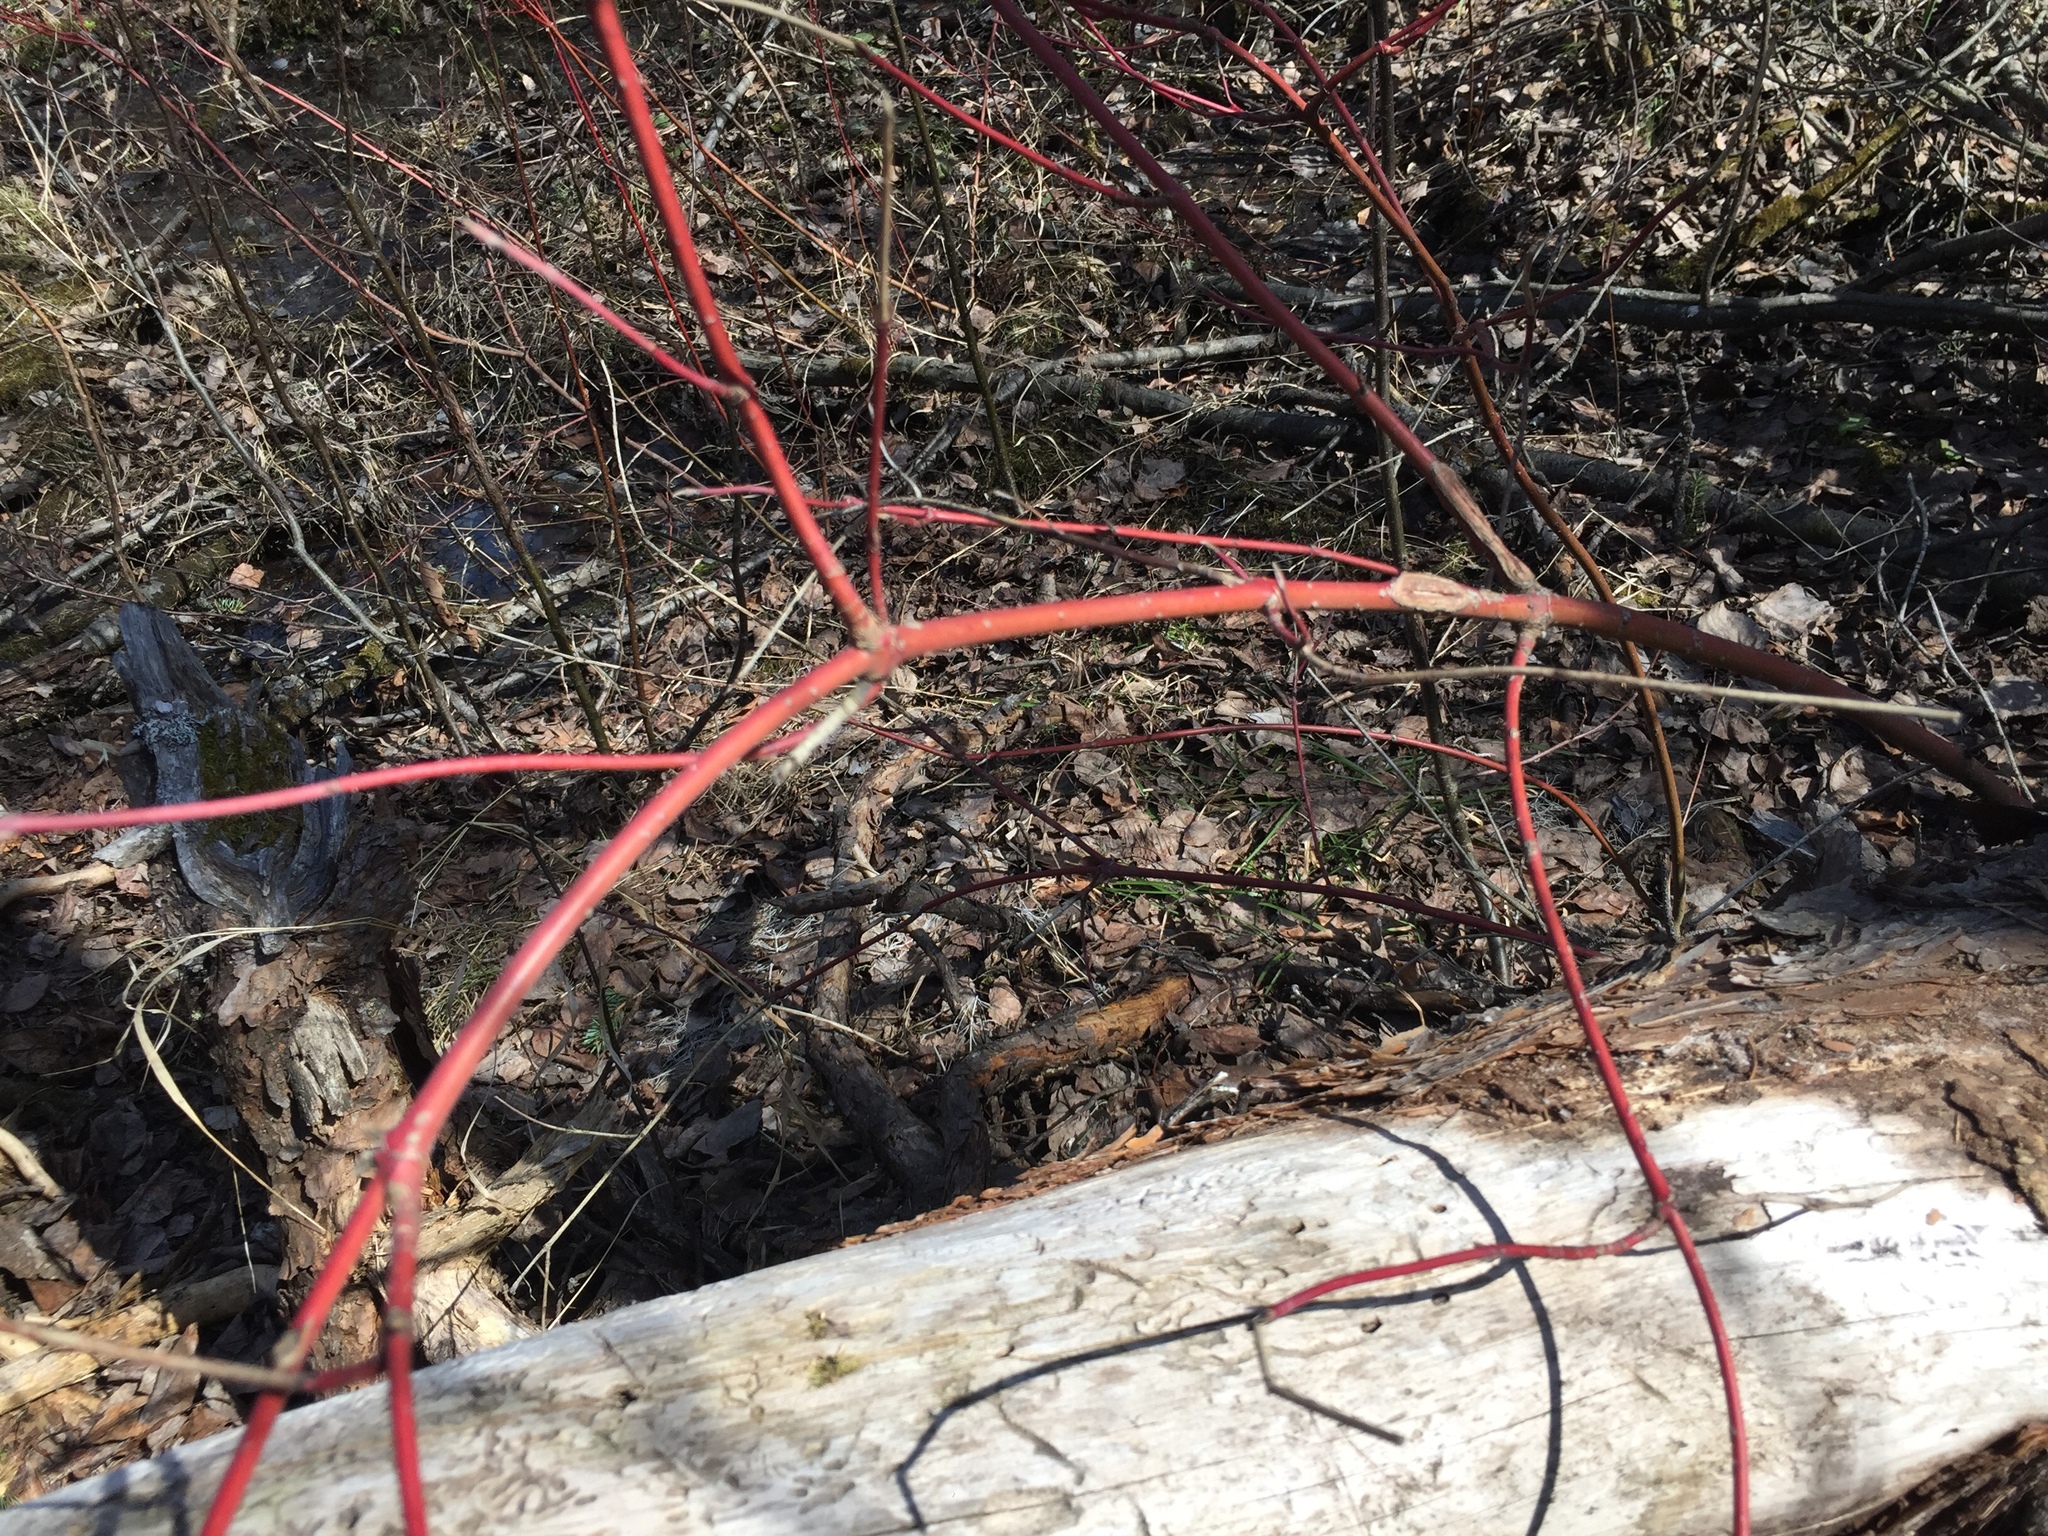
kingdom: Plantae
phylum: Tracheophyta
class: Magnoliopsida
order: Cornales
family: Cornaceae
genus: Cornus
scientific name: Cornus sericea
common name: Red-osier dogwood
